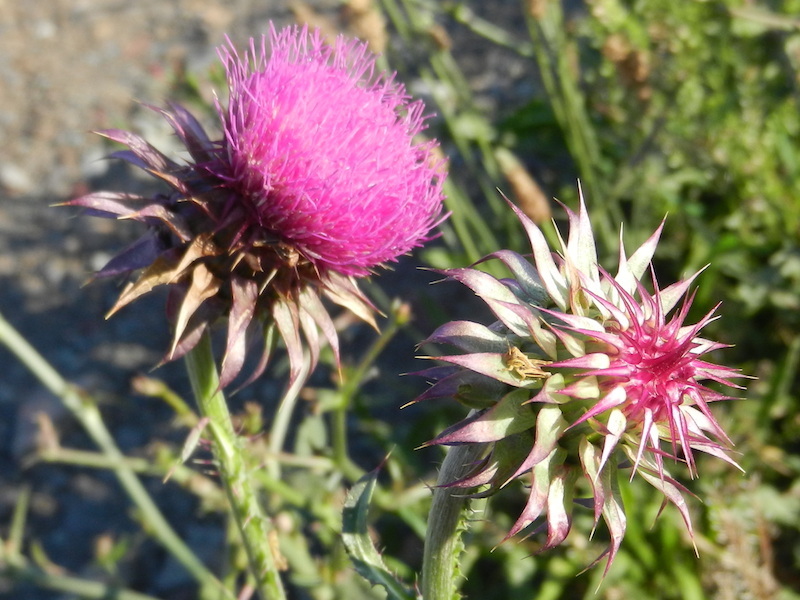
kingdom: Plantae
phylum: Tracheophyta
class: Magnoliopsida
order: Asterales
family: Asteraceae
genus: Carduus
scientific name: Carduus nutans
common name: Musk thistle
